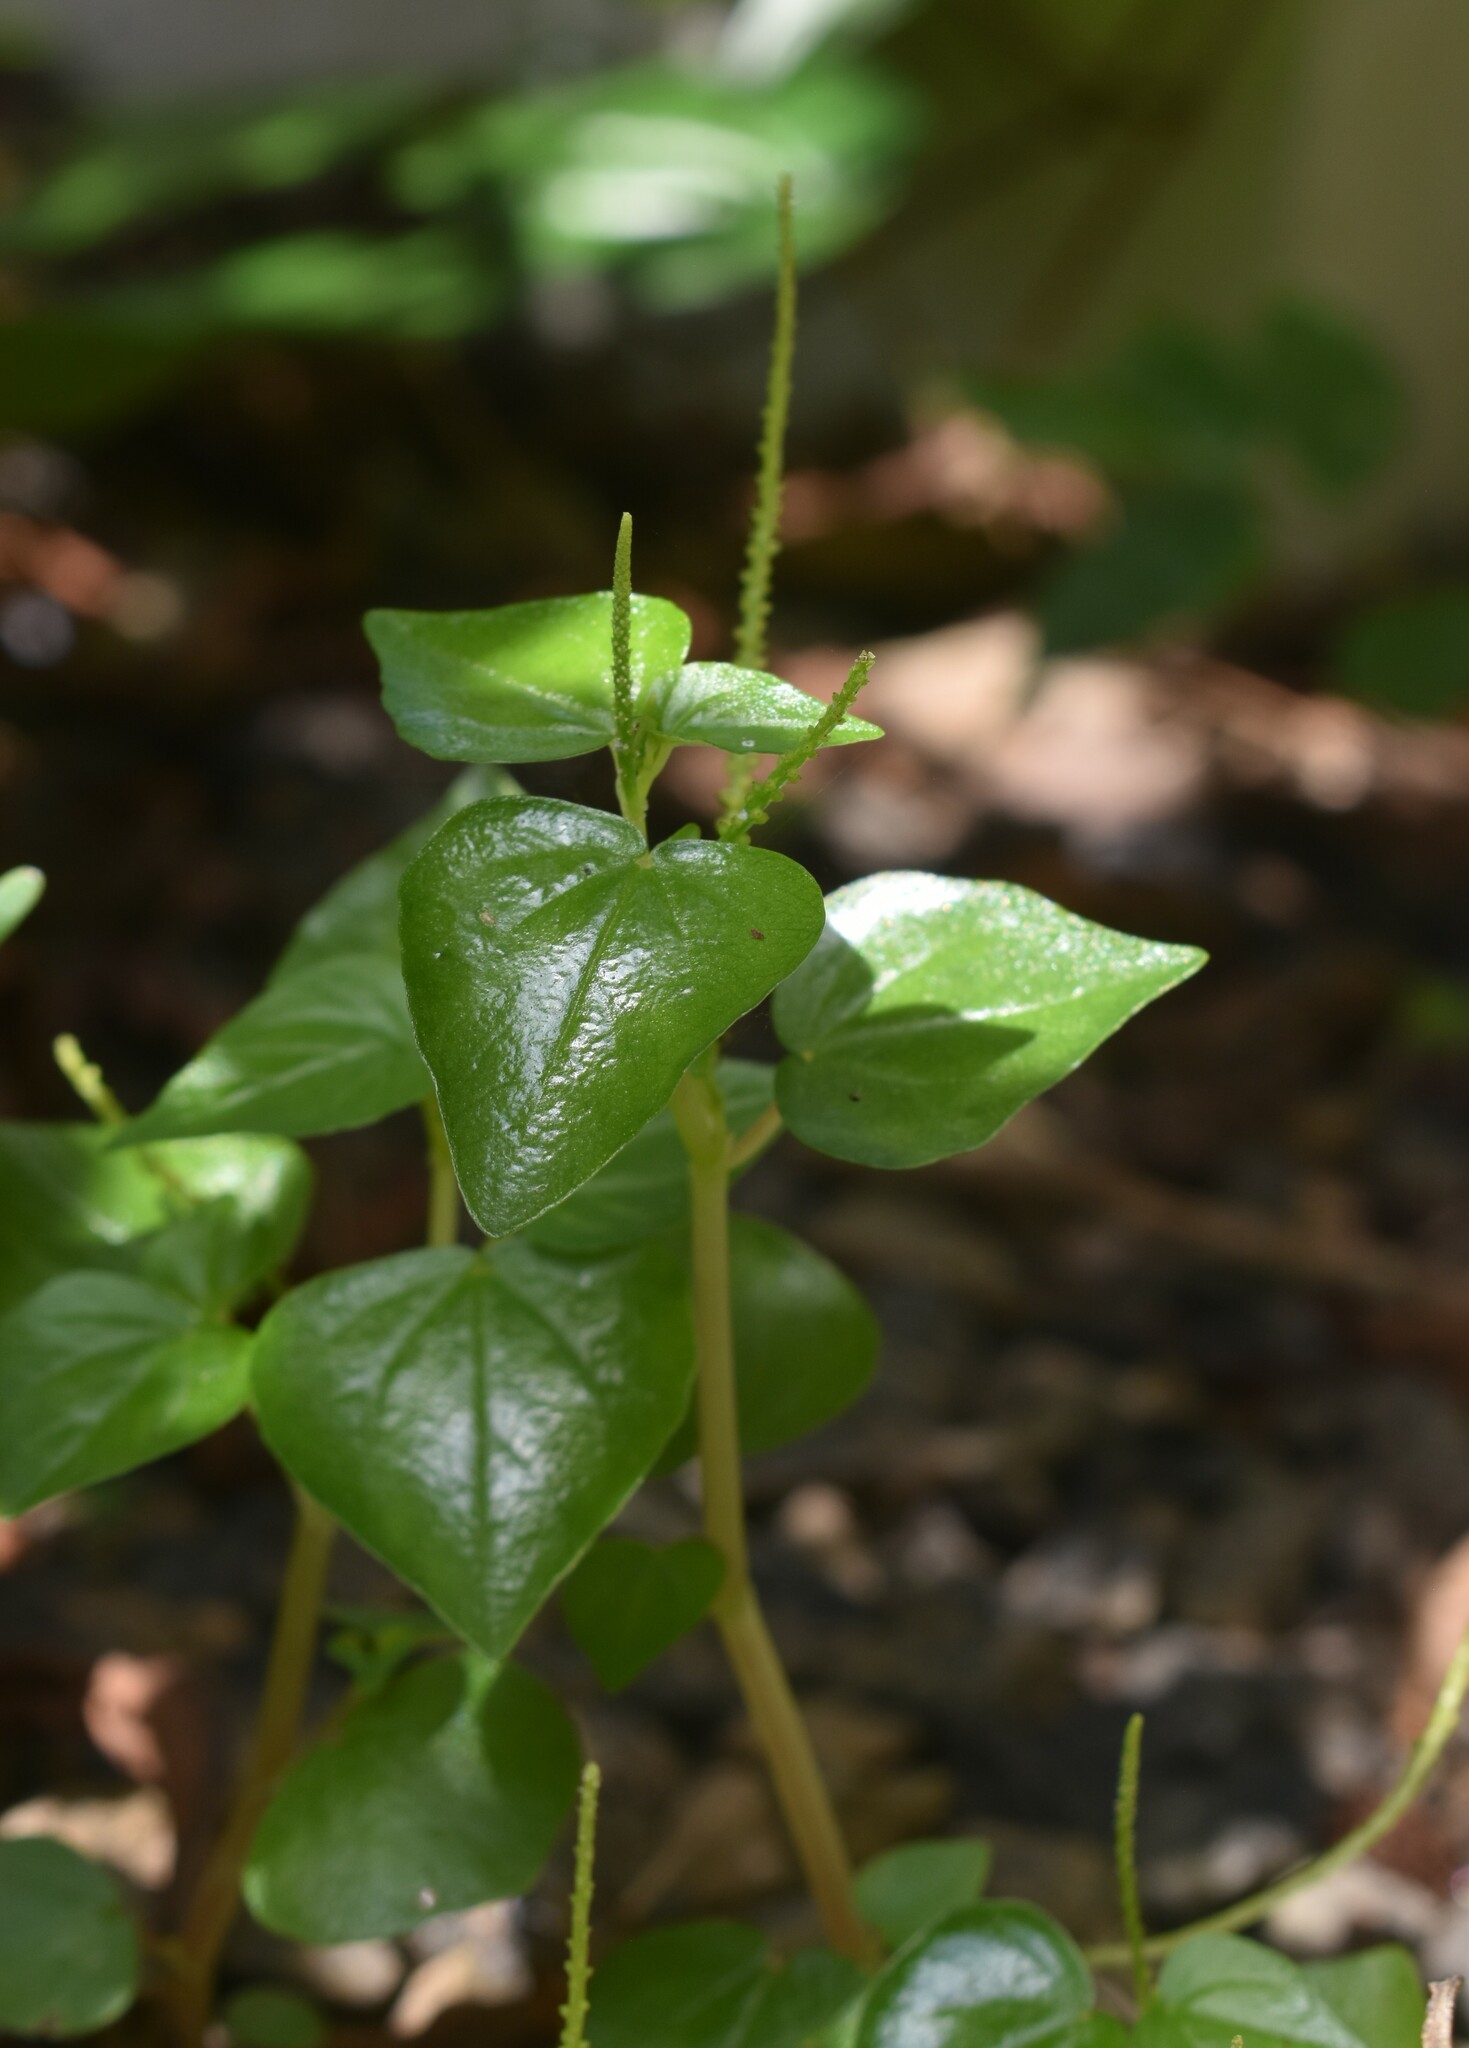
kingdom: Plantae
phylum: Tracheophyta
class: Magnoliopsida
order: Piperales
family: Piperaceae
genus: Peperomia
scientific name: Peperomia pellucida
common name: Man to man
